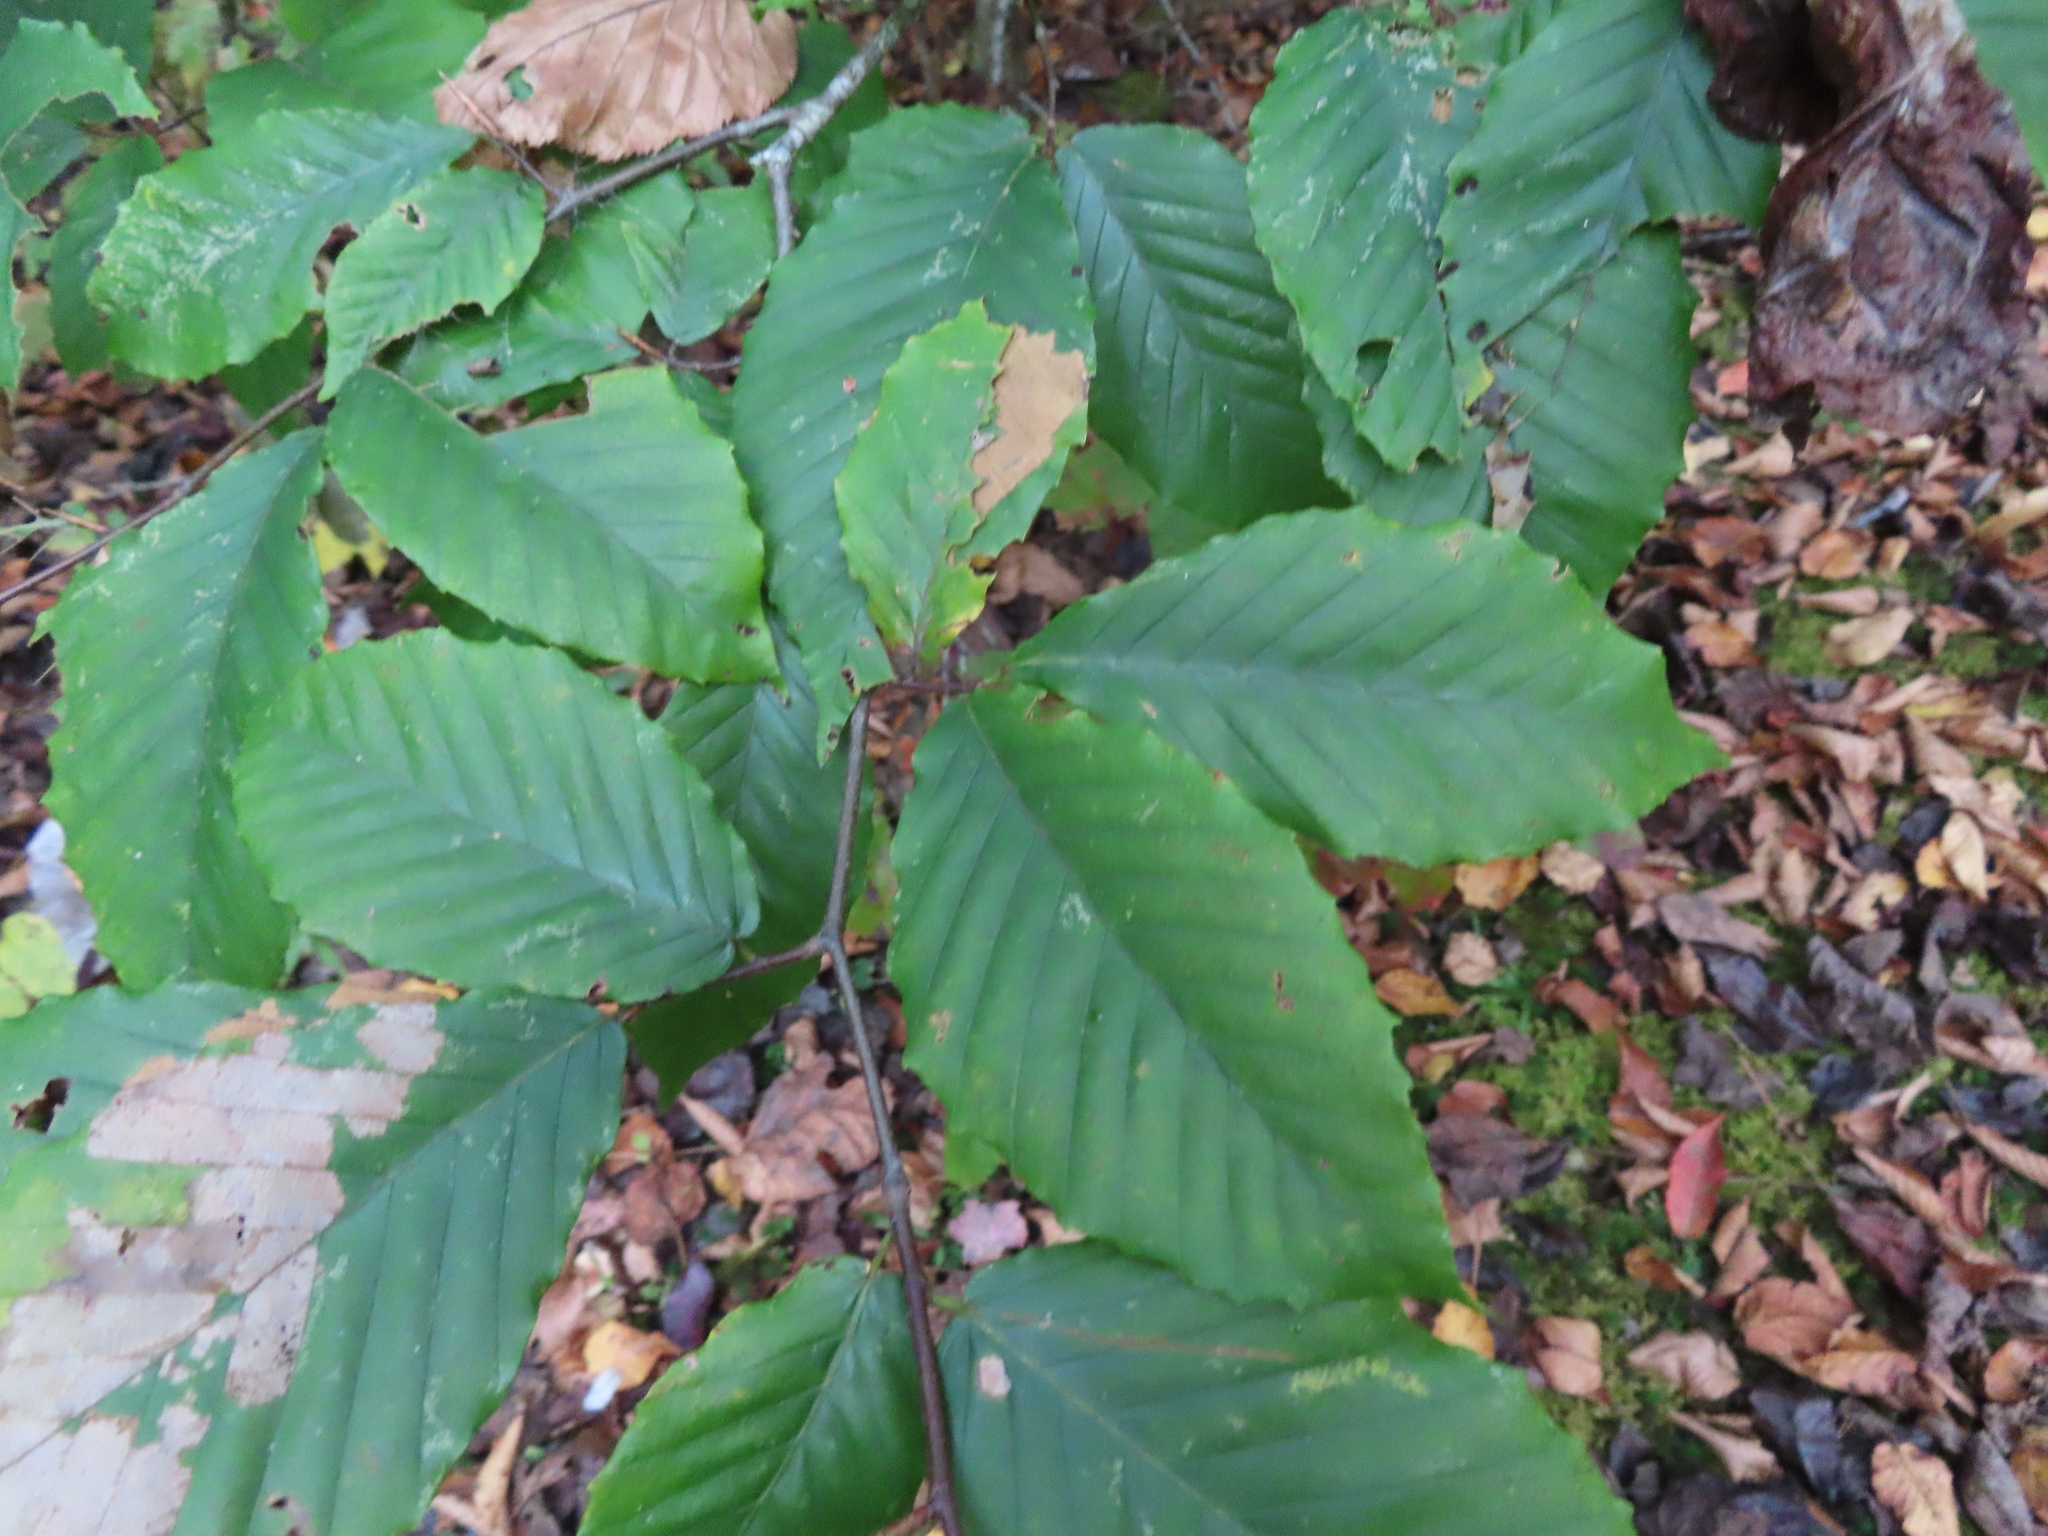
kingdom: Plantae
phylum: Tracheophyta
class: Magnoliopsida
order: Fagales
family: Fagaceae
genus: Fagus
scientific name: Fagus grandifolia
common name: American beech
